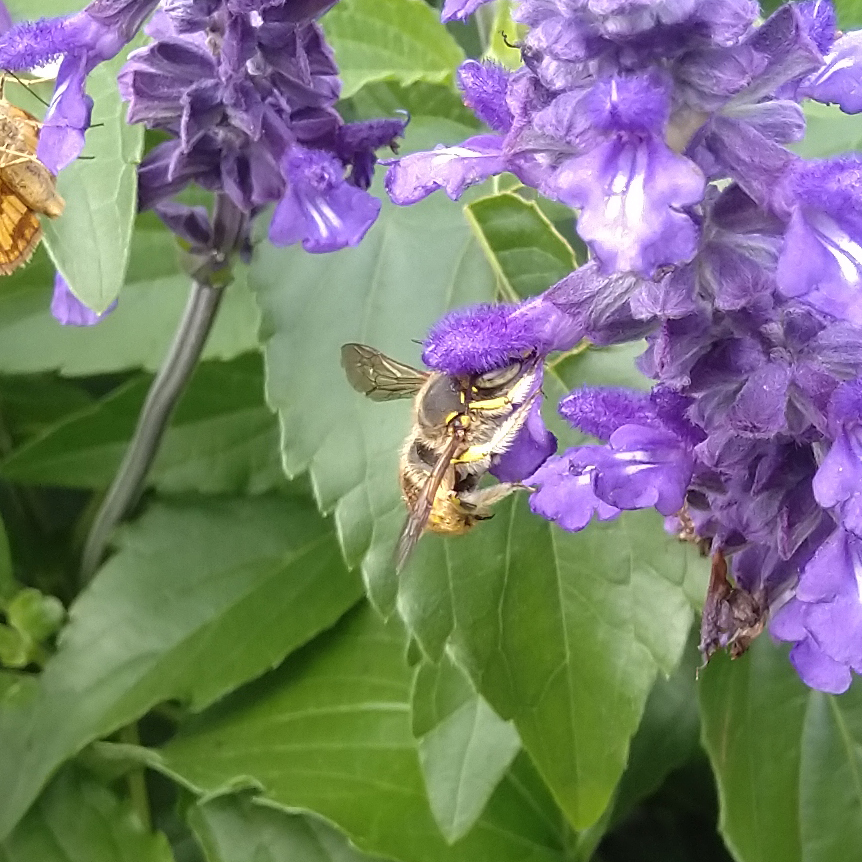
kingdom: Animalia
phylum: Arthropoda
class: Insecta
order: Hymenoptera
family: Megachilidae
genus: Anthidium
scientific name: Anthidium manicatum
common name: Wool carder bee
